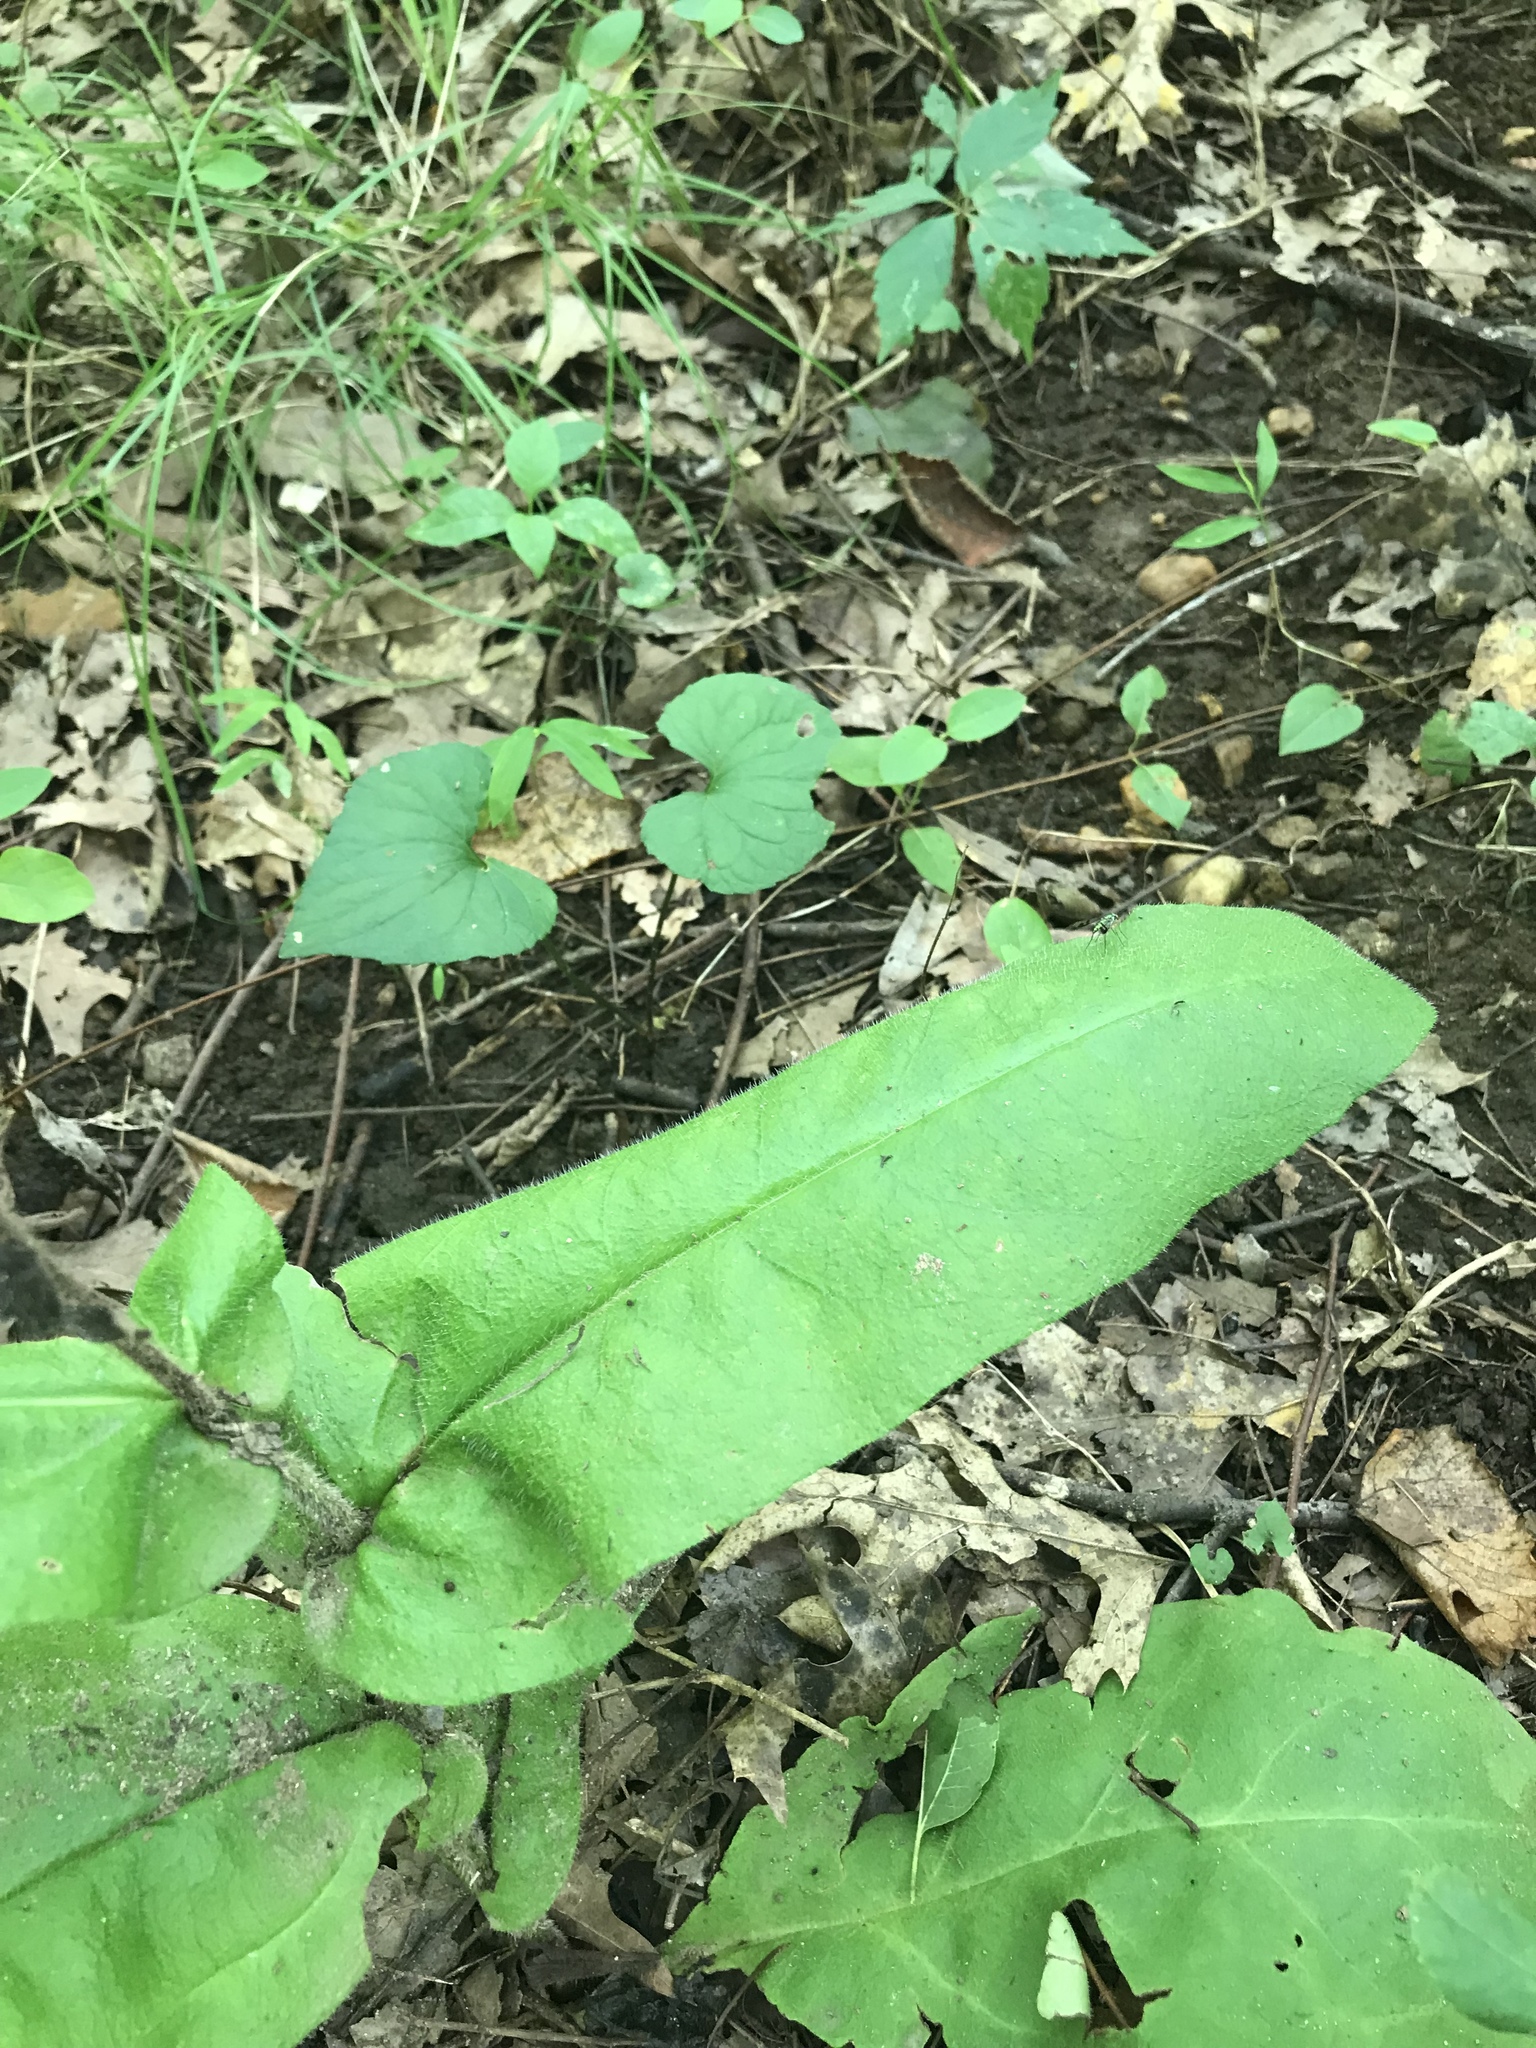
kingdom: Plantae
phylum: Tracheophyta
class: Magnoliopsida
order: Boraginales
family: Boraginaceae
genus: Andersonglossum
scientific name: Andersonglossum virginianum
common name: Wild comfrey
